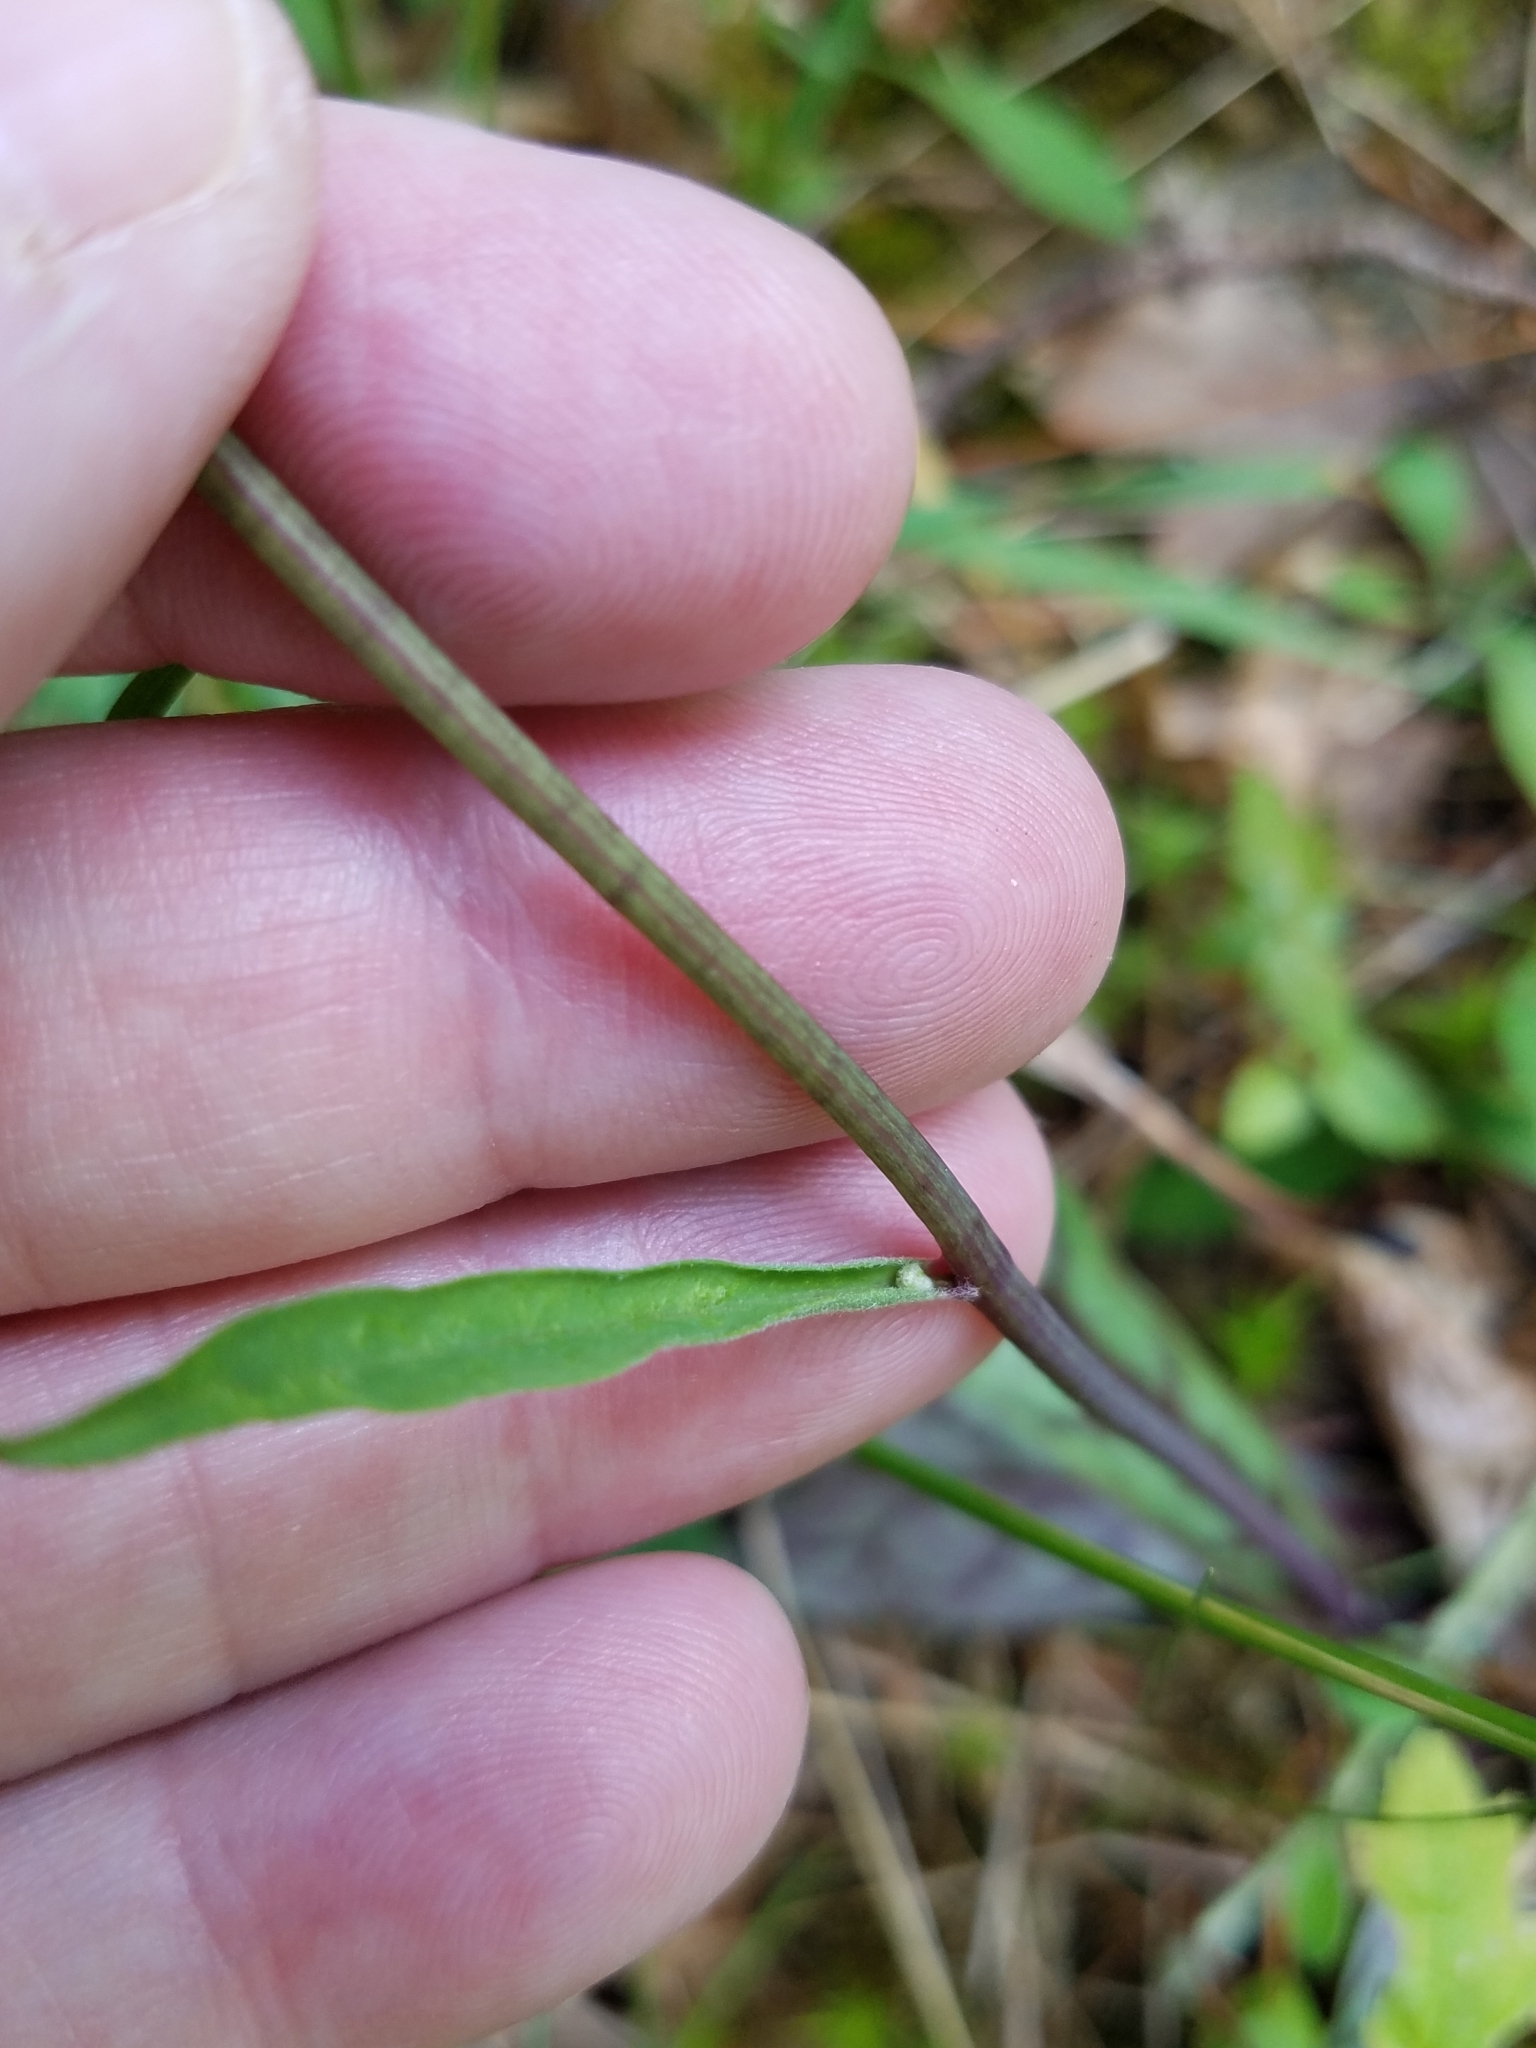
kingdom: Plantae
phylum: Tracheophyta
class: Magnoliopsida
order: Asterales
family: Asteraceae
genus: Hieracium
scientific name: Hieracium venosum
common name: Rattlesnake hawkweed
